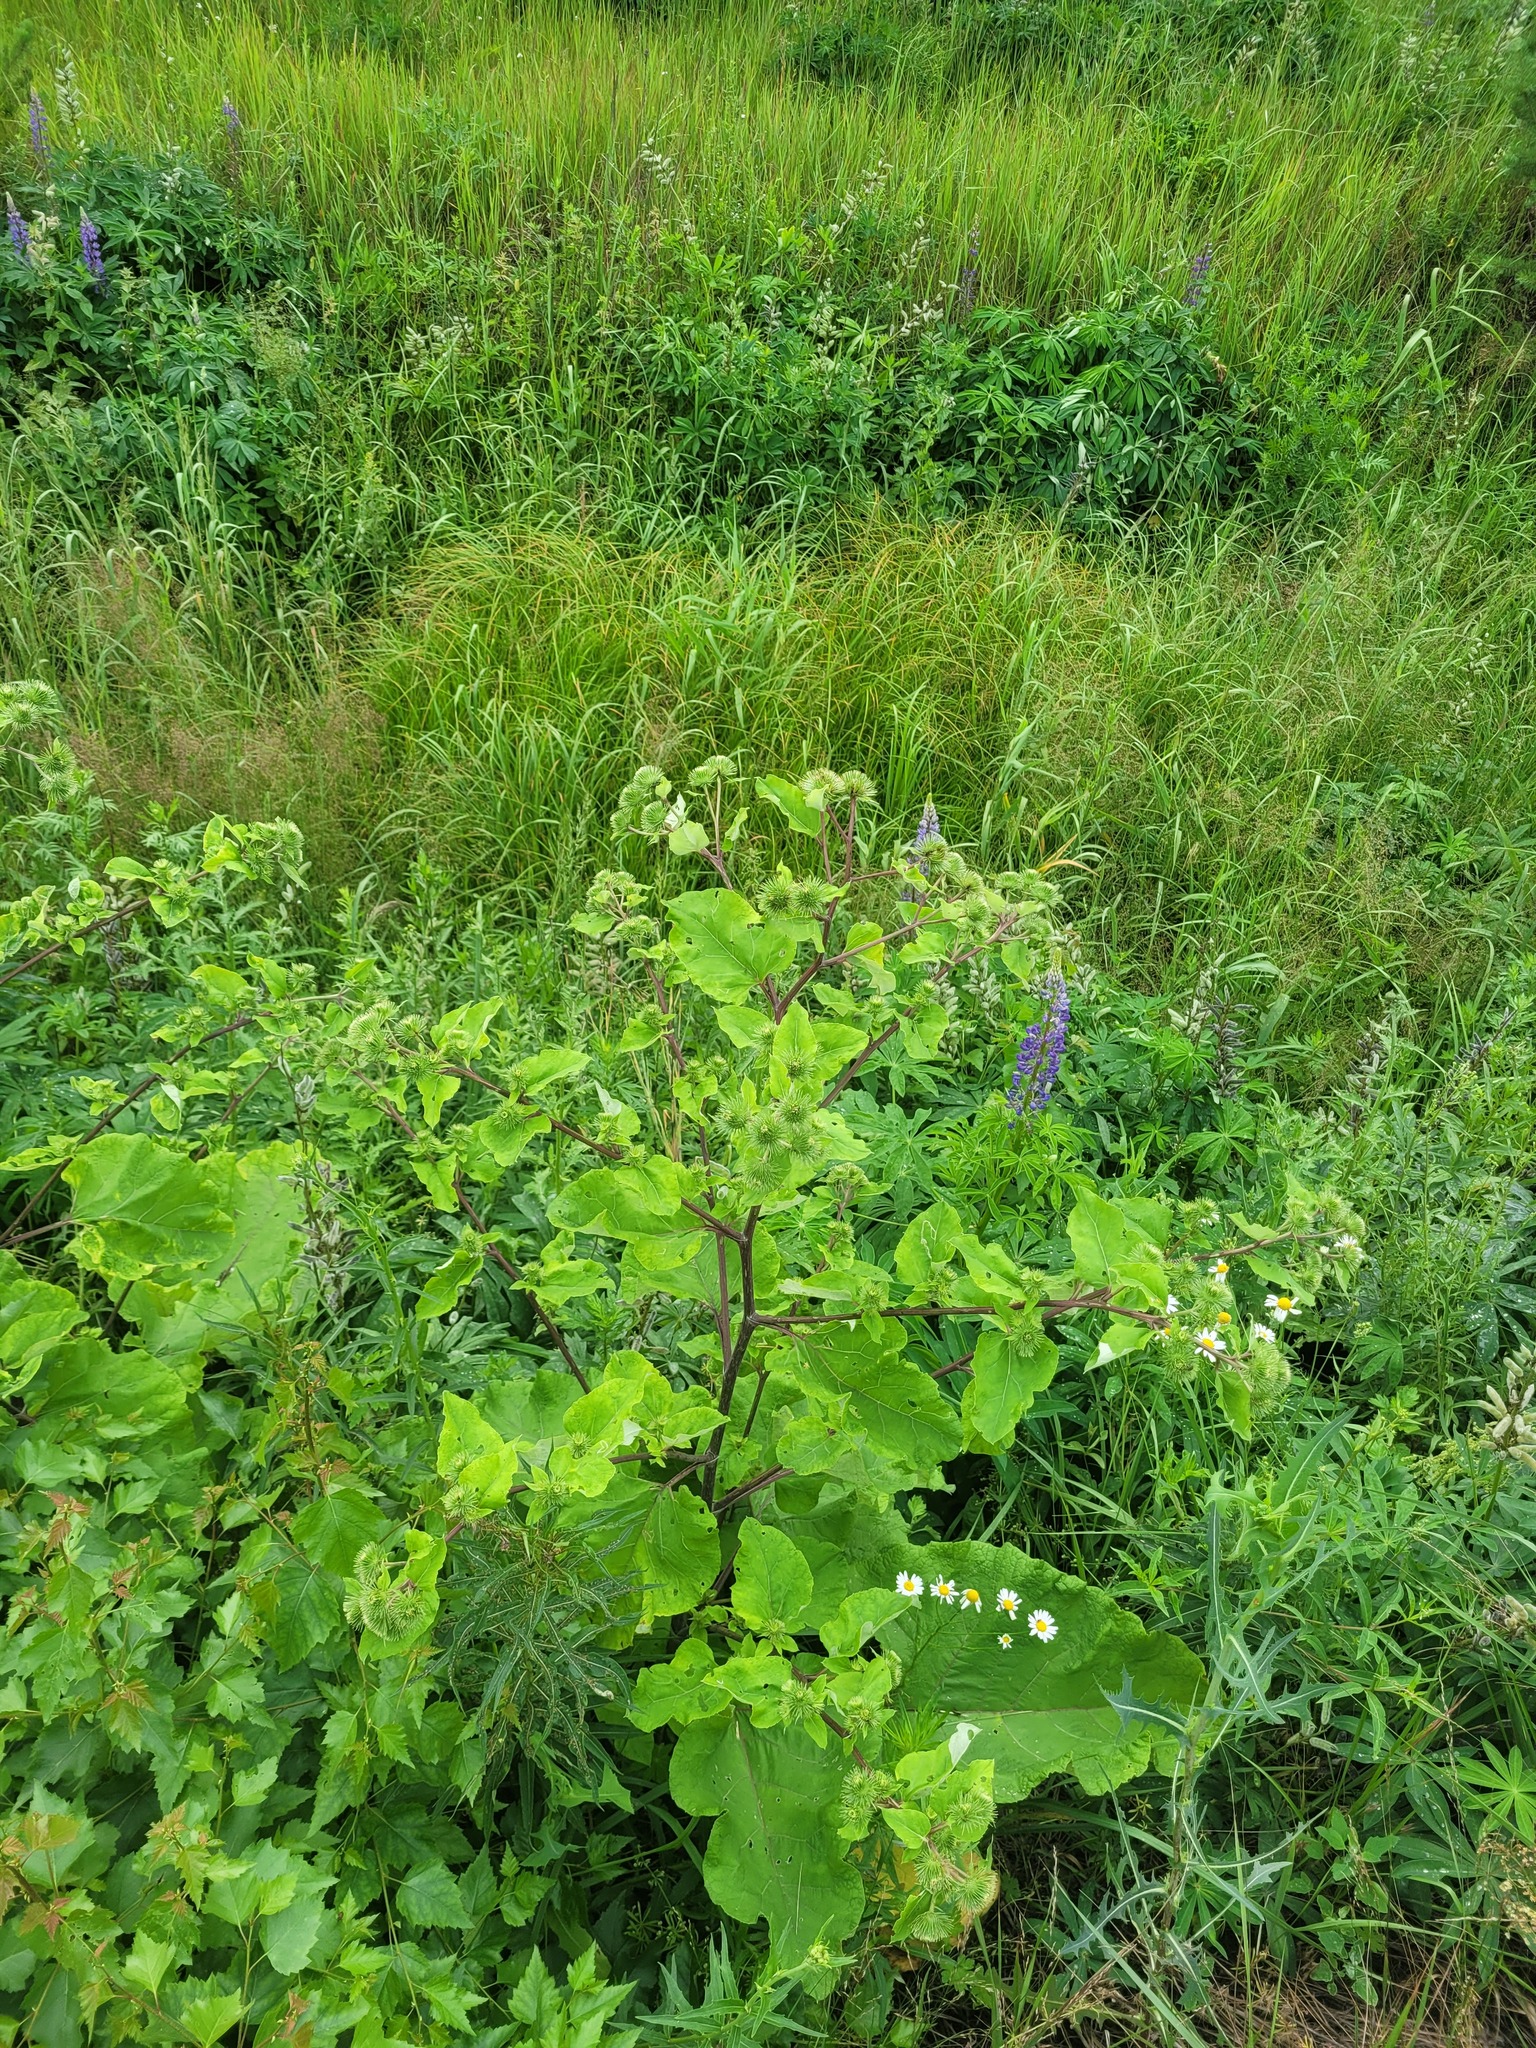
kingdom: Plantae
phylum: Tracheophyta
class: Magnoliopsida
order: Asterales
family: Asteraceae
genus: Arctium
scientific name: Arctium lappa
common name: Greater burdock
